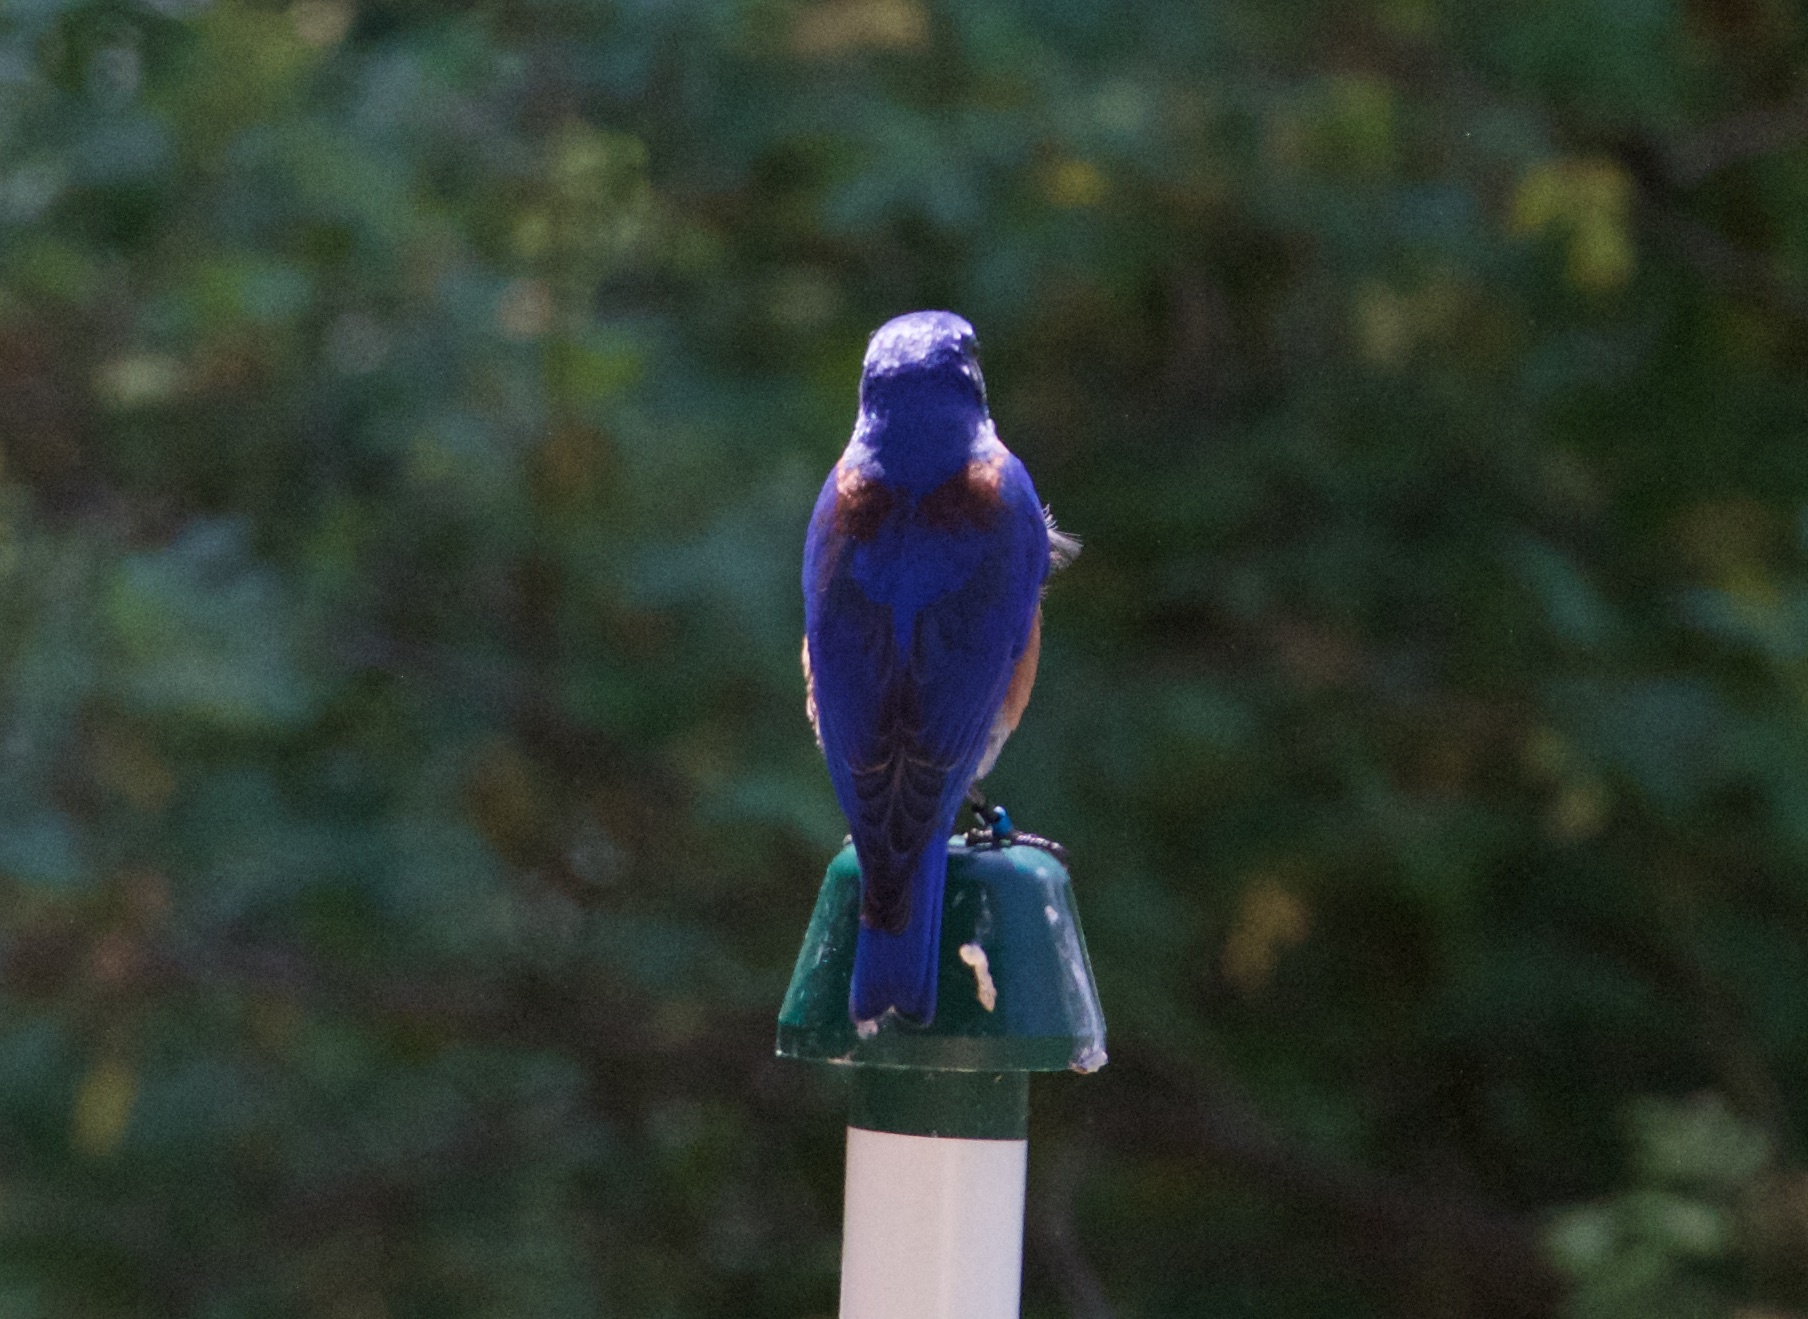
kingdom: Animalia
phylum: Chordata
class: Aves
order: Passeriformes
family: Turdidae
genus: Sialia
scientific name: Sialia mexicana
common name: Western bluebird
